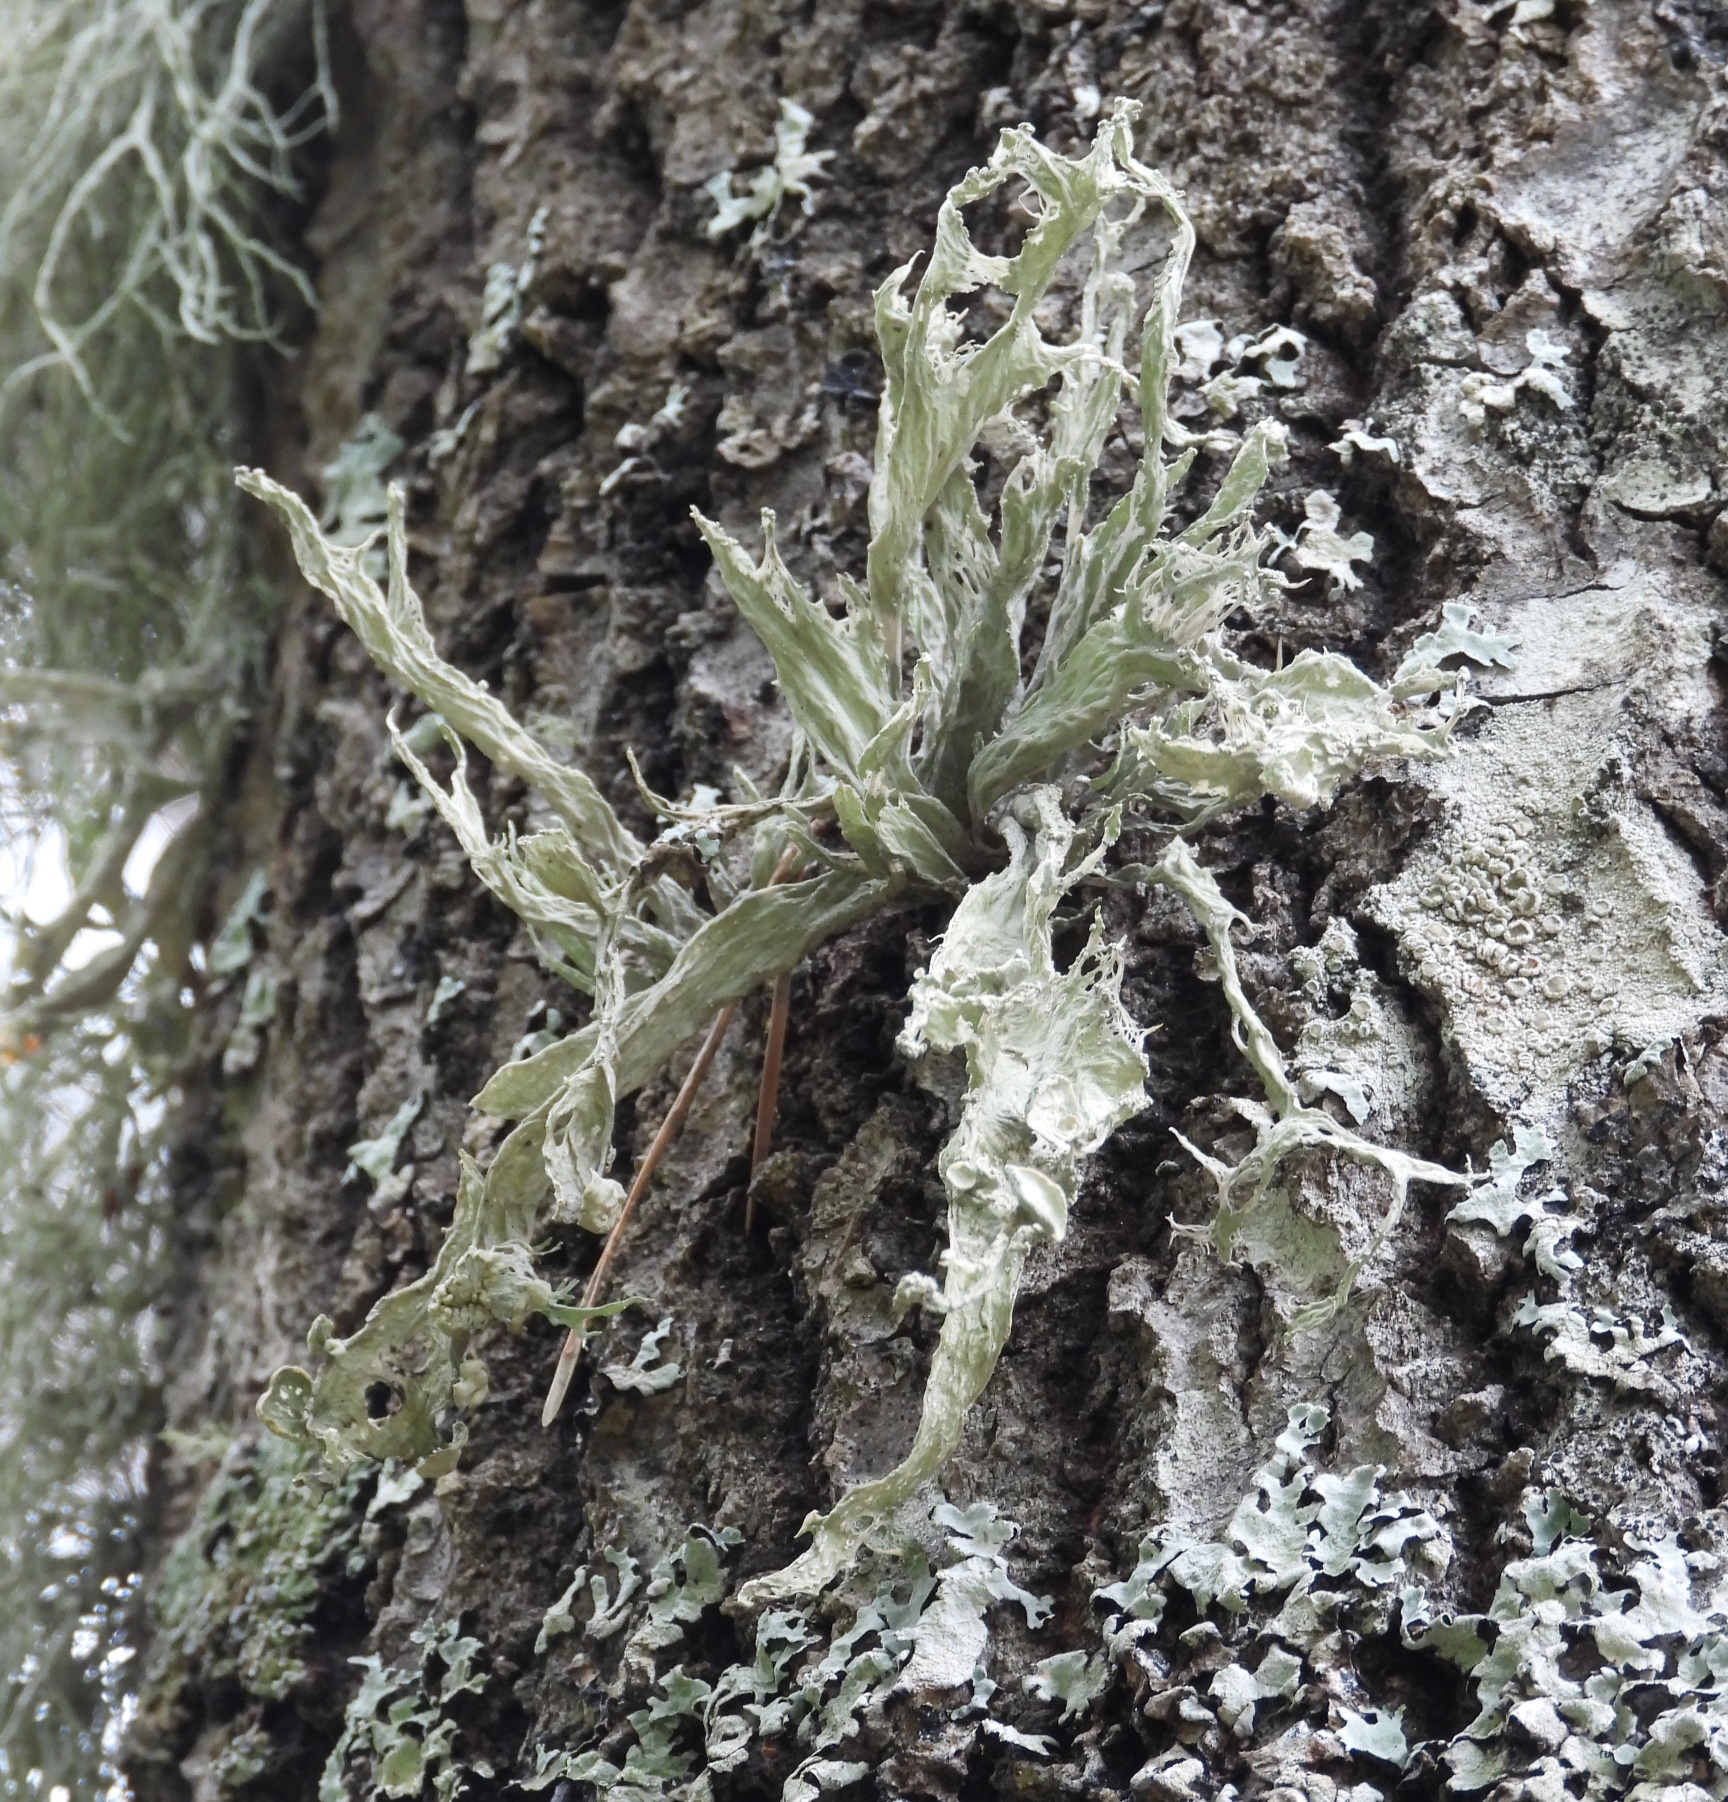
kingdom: Fungi
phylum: Ascomycota
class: Lecanoromycetes
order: Lecanorales
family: Ramalinaceae
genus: Ramalina
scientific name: Ramalina fraxinea
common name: Cartilage lichen
